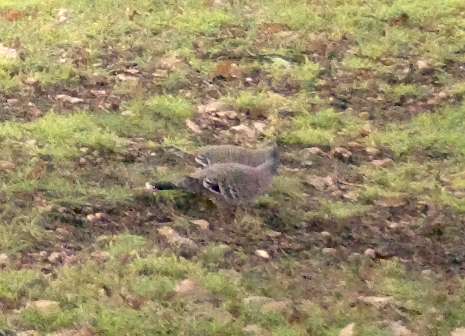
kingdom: Animalia
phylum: Chordata
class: Aves
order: Columbiformes
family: Columbidae
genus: Ocyphaps
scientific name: Ocyphaps lophotes
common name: Crested pigeon
